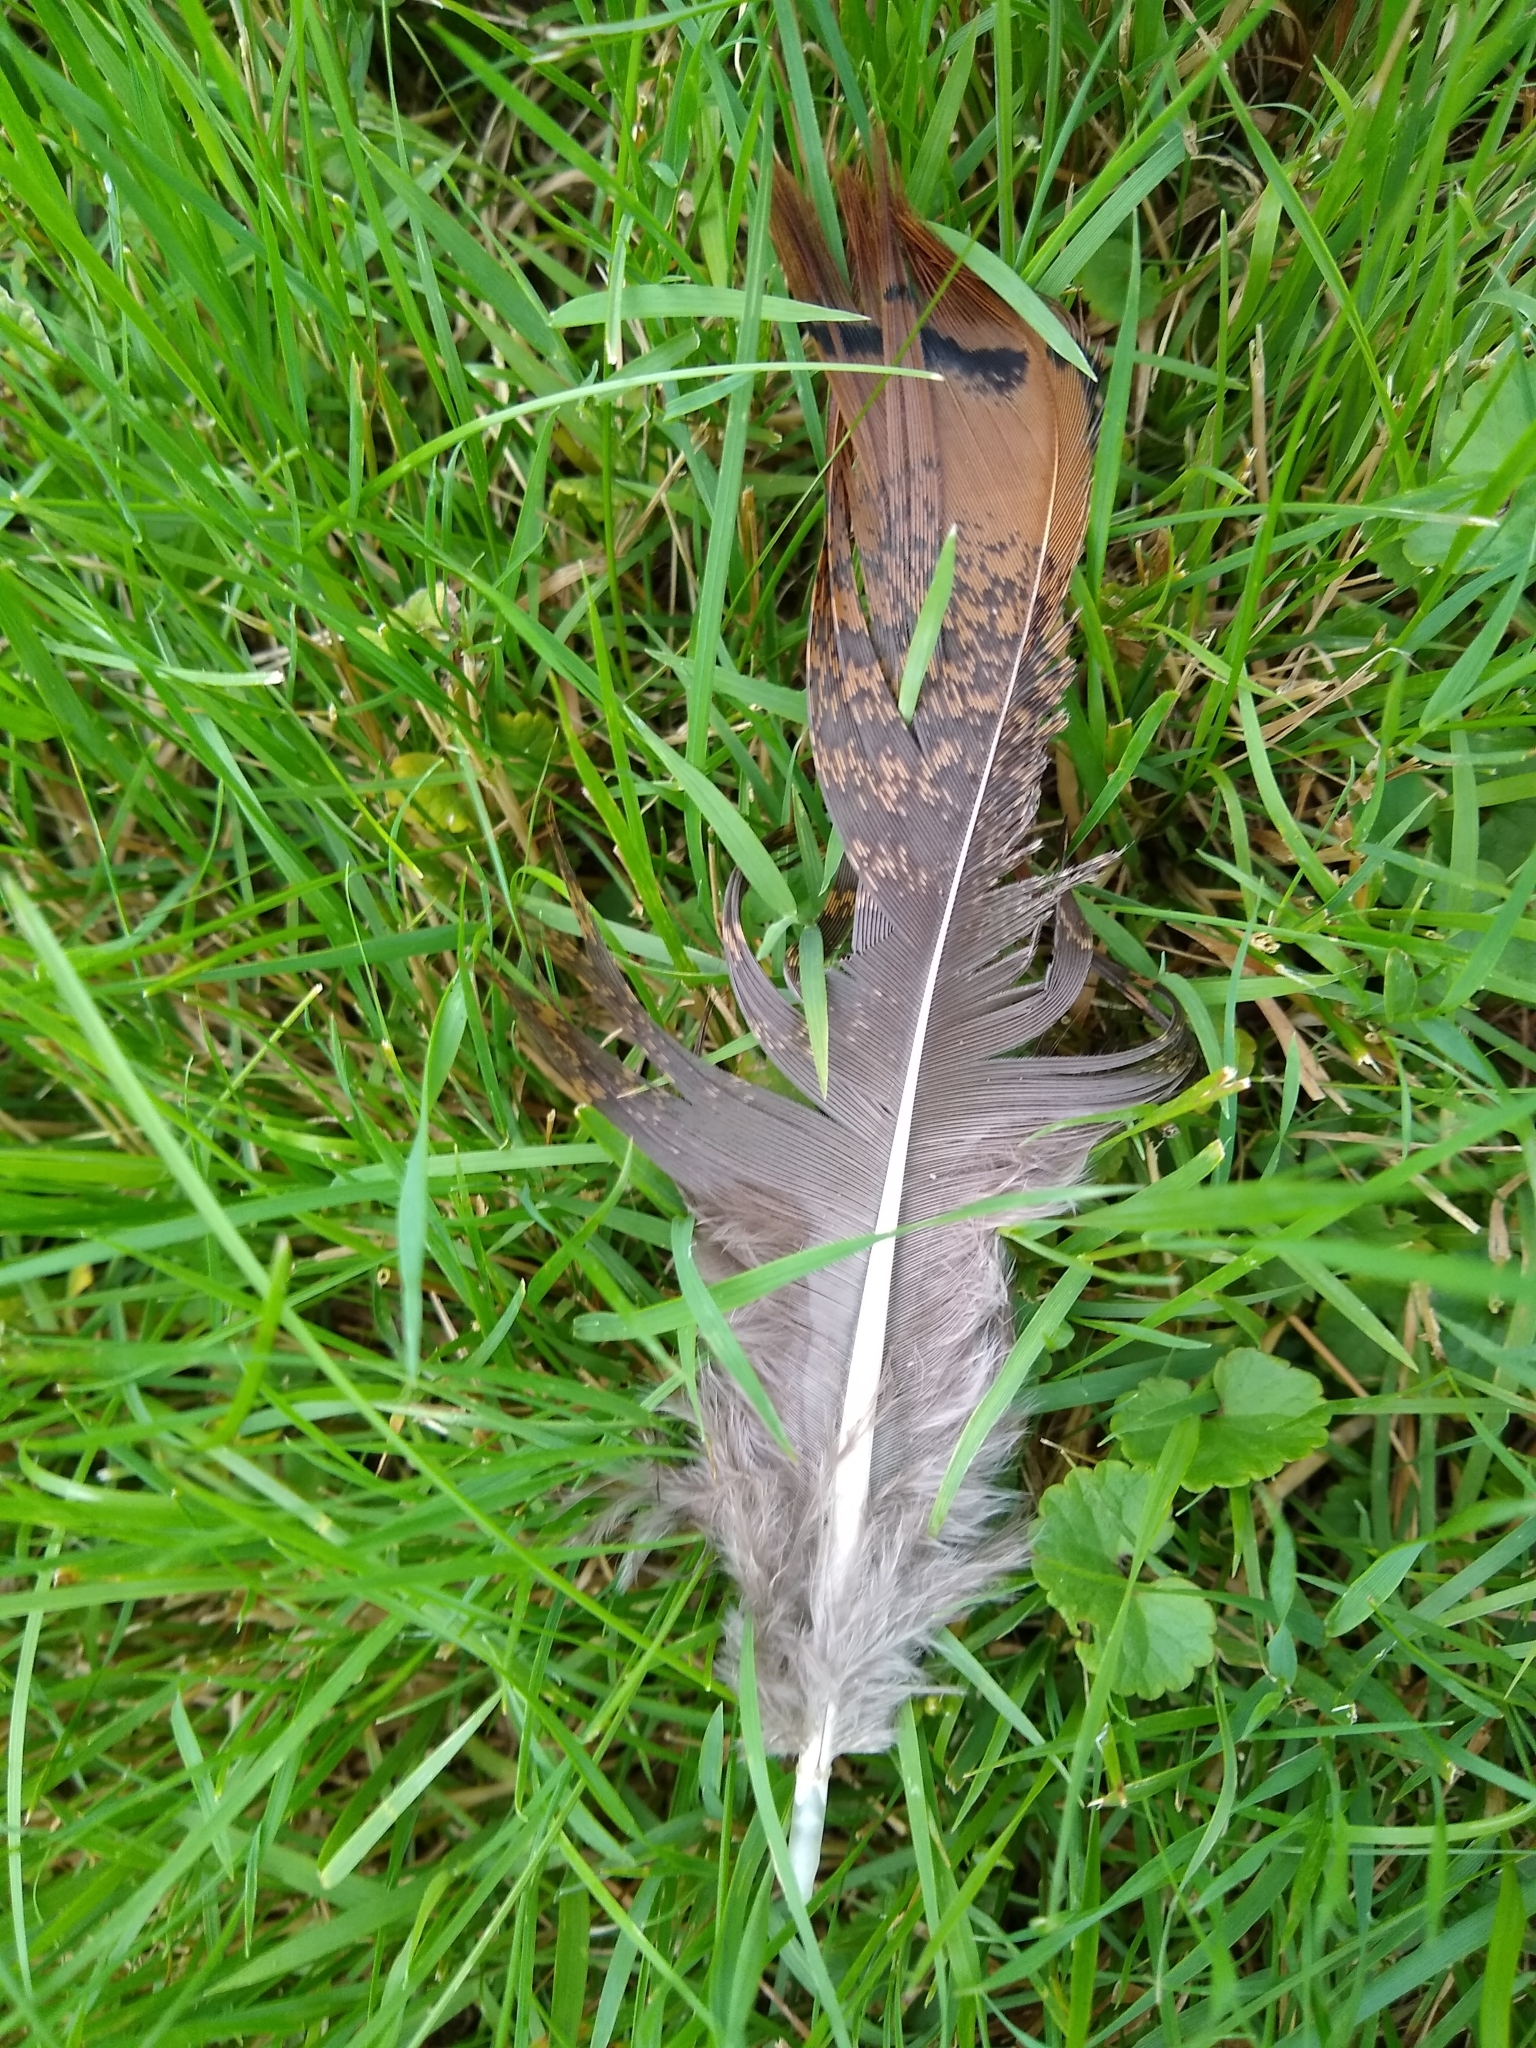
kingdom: Animalia
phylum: Chordata
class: Aves
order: Galliformes
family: Phasianidae
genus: Meleagris
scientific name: Meleagris gallopavo
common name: Wild turkey
